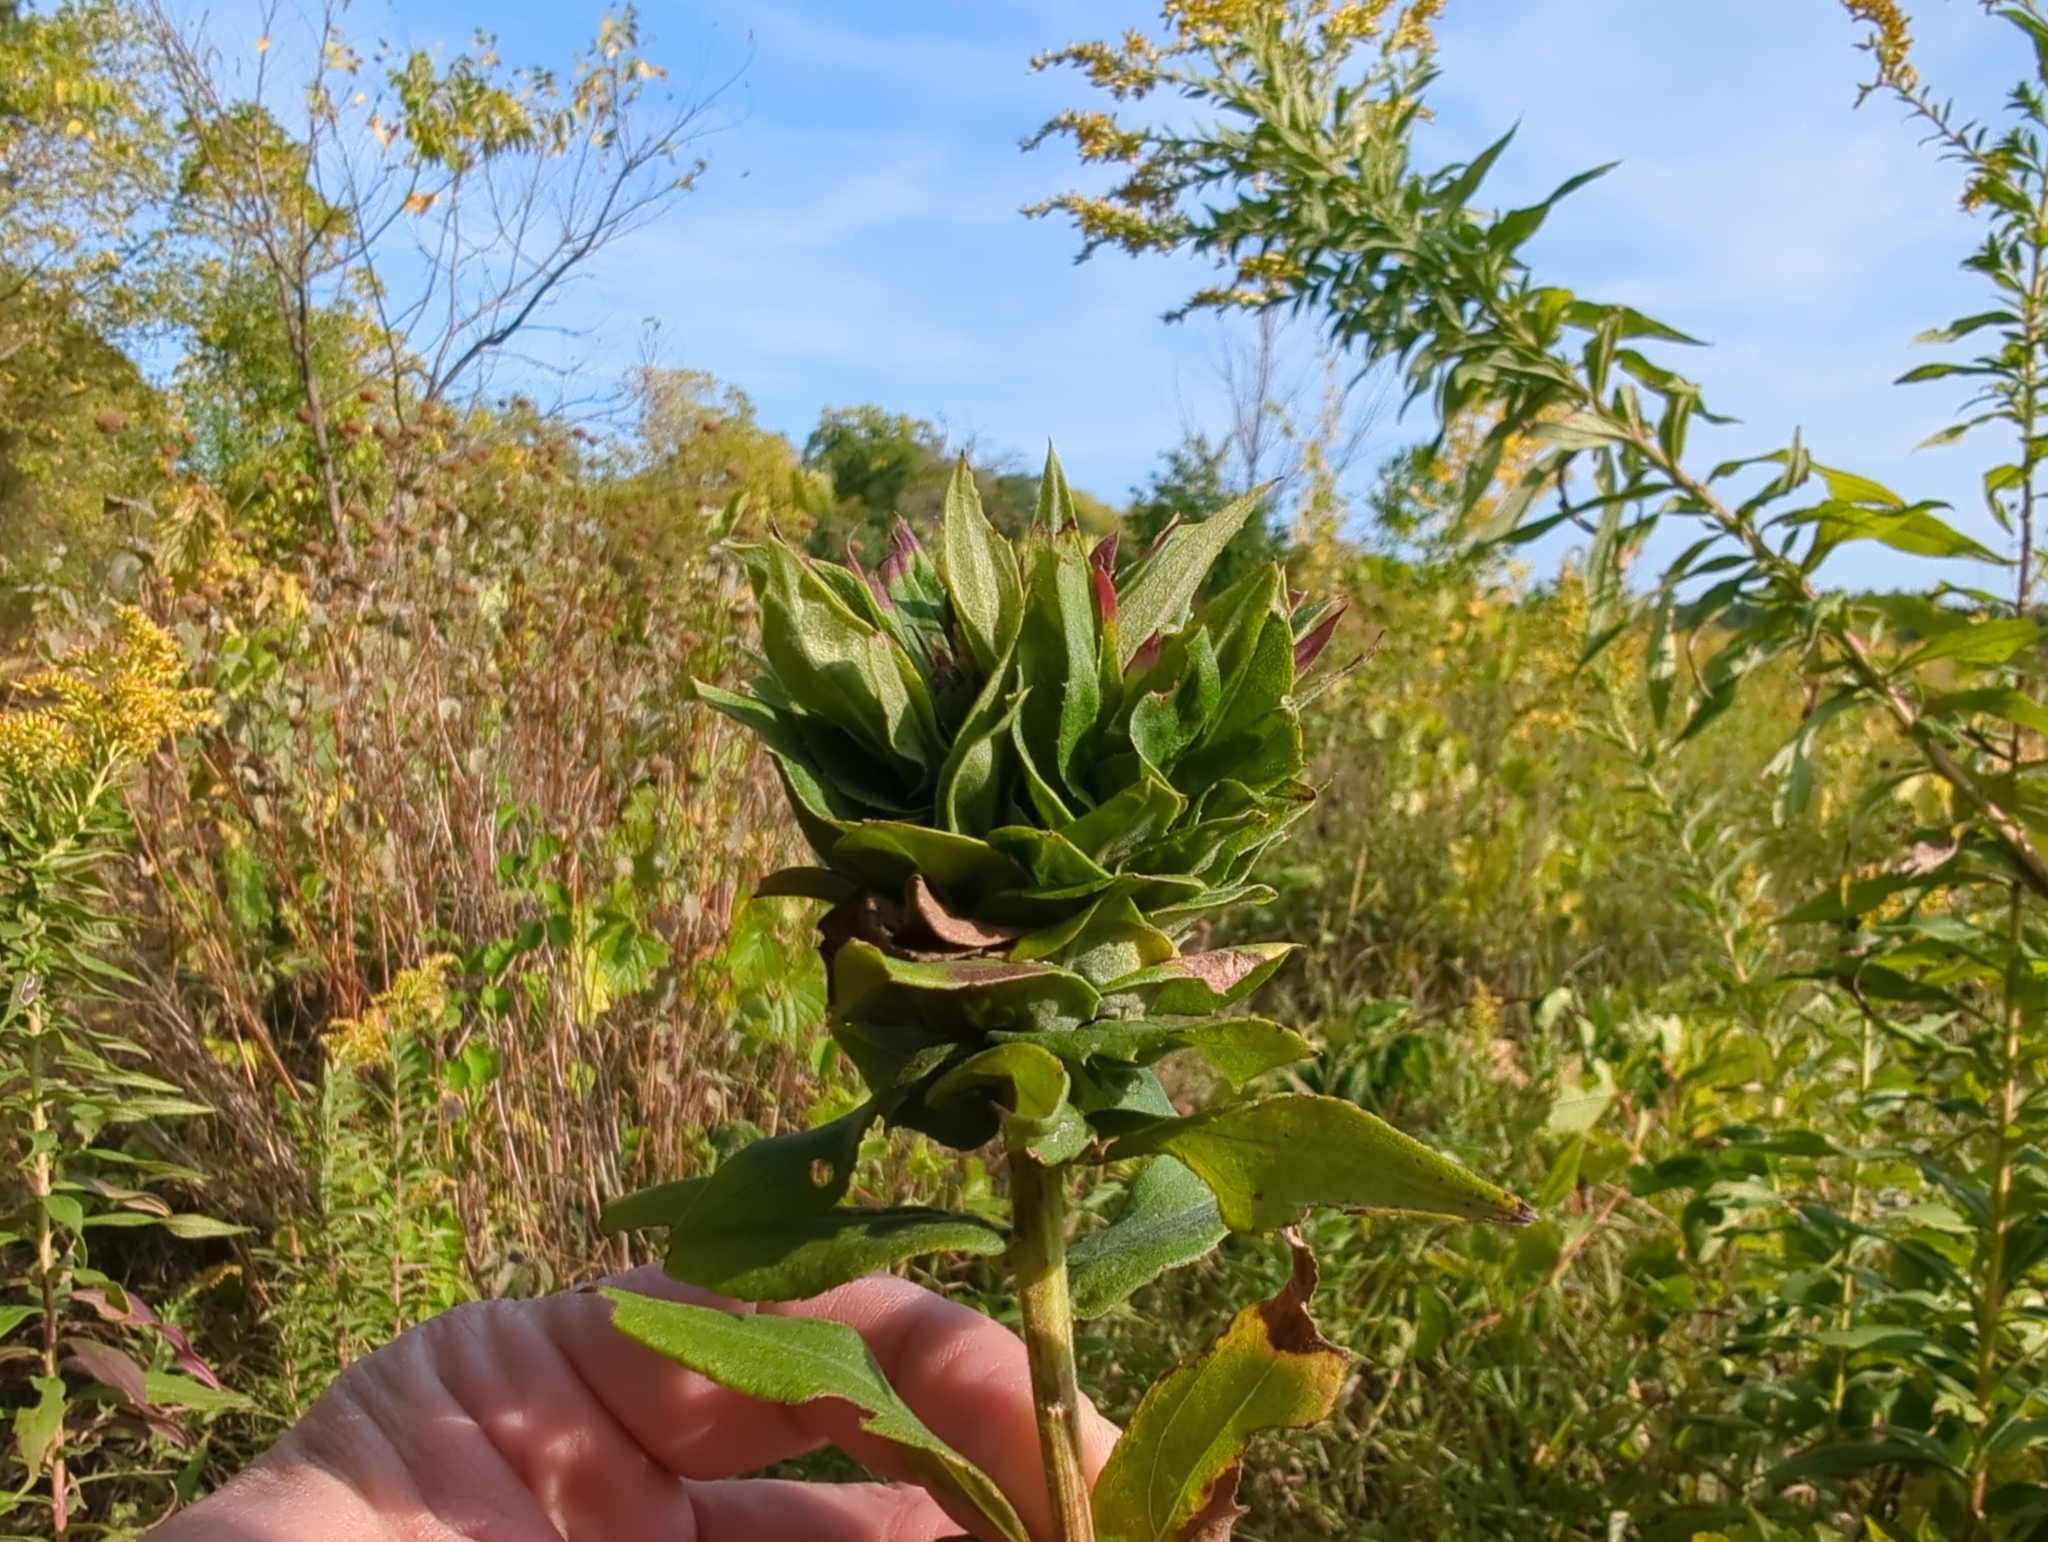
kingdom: Animalia
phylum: Arthropoda
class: Insecta
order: Diptera
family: Cecidomyiidae
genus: Rhopalomyia
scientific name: Rhopalomyia solidaginis
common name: Goldenrod bunch gall midge
